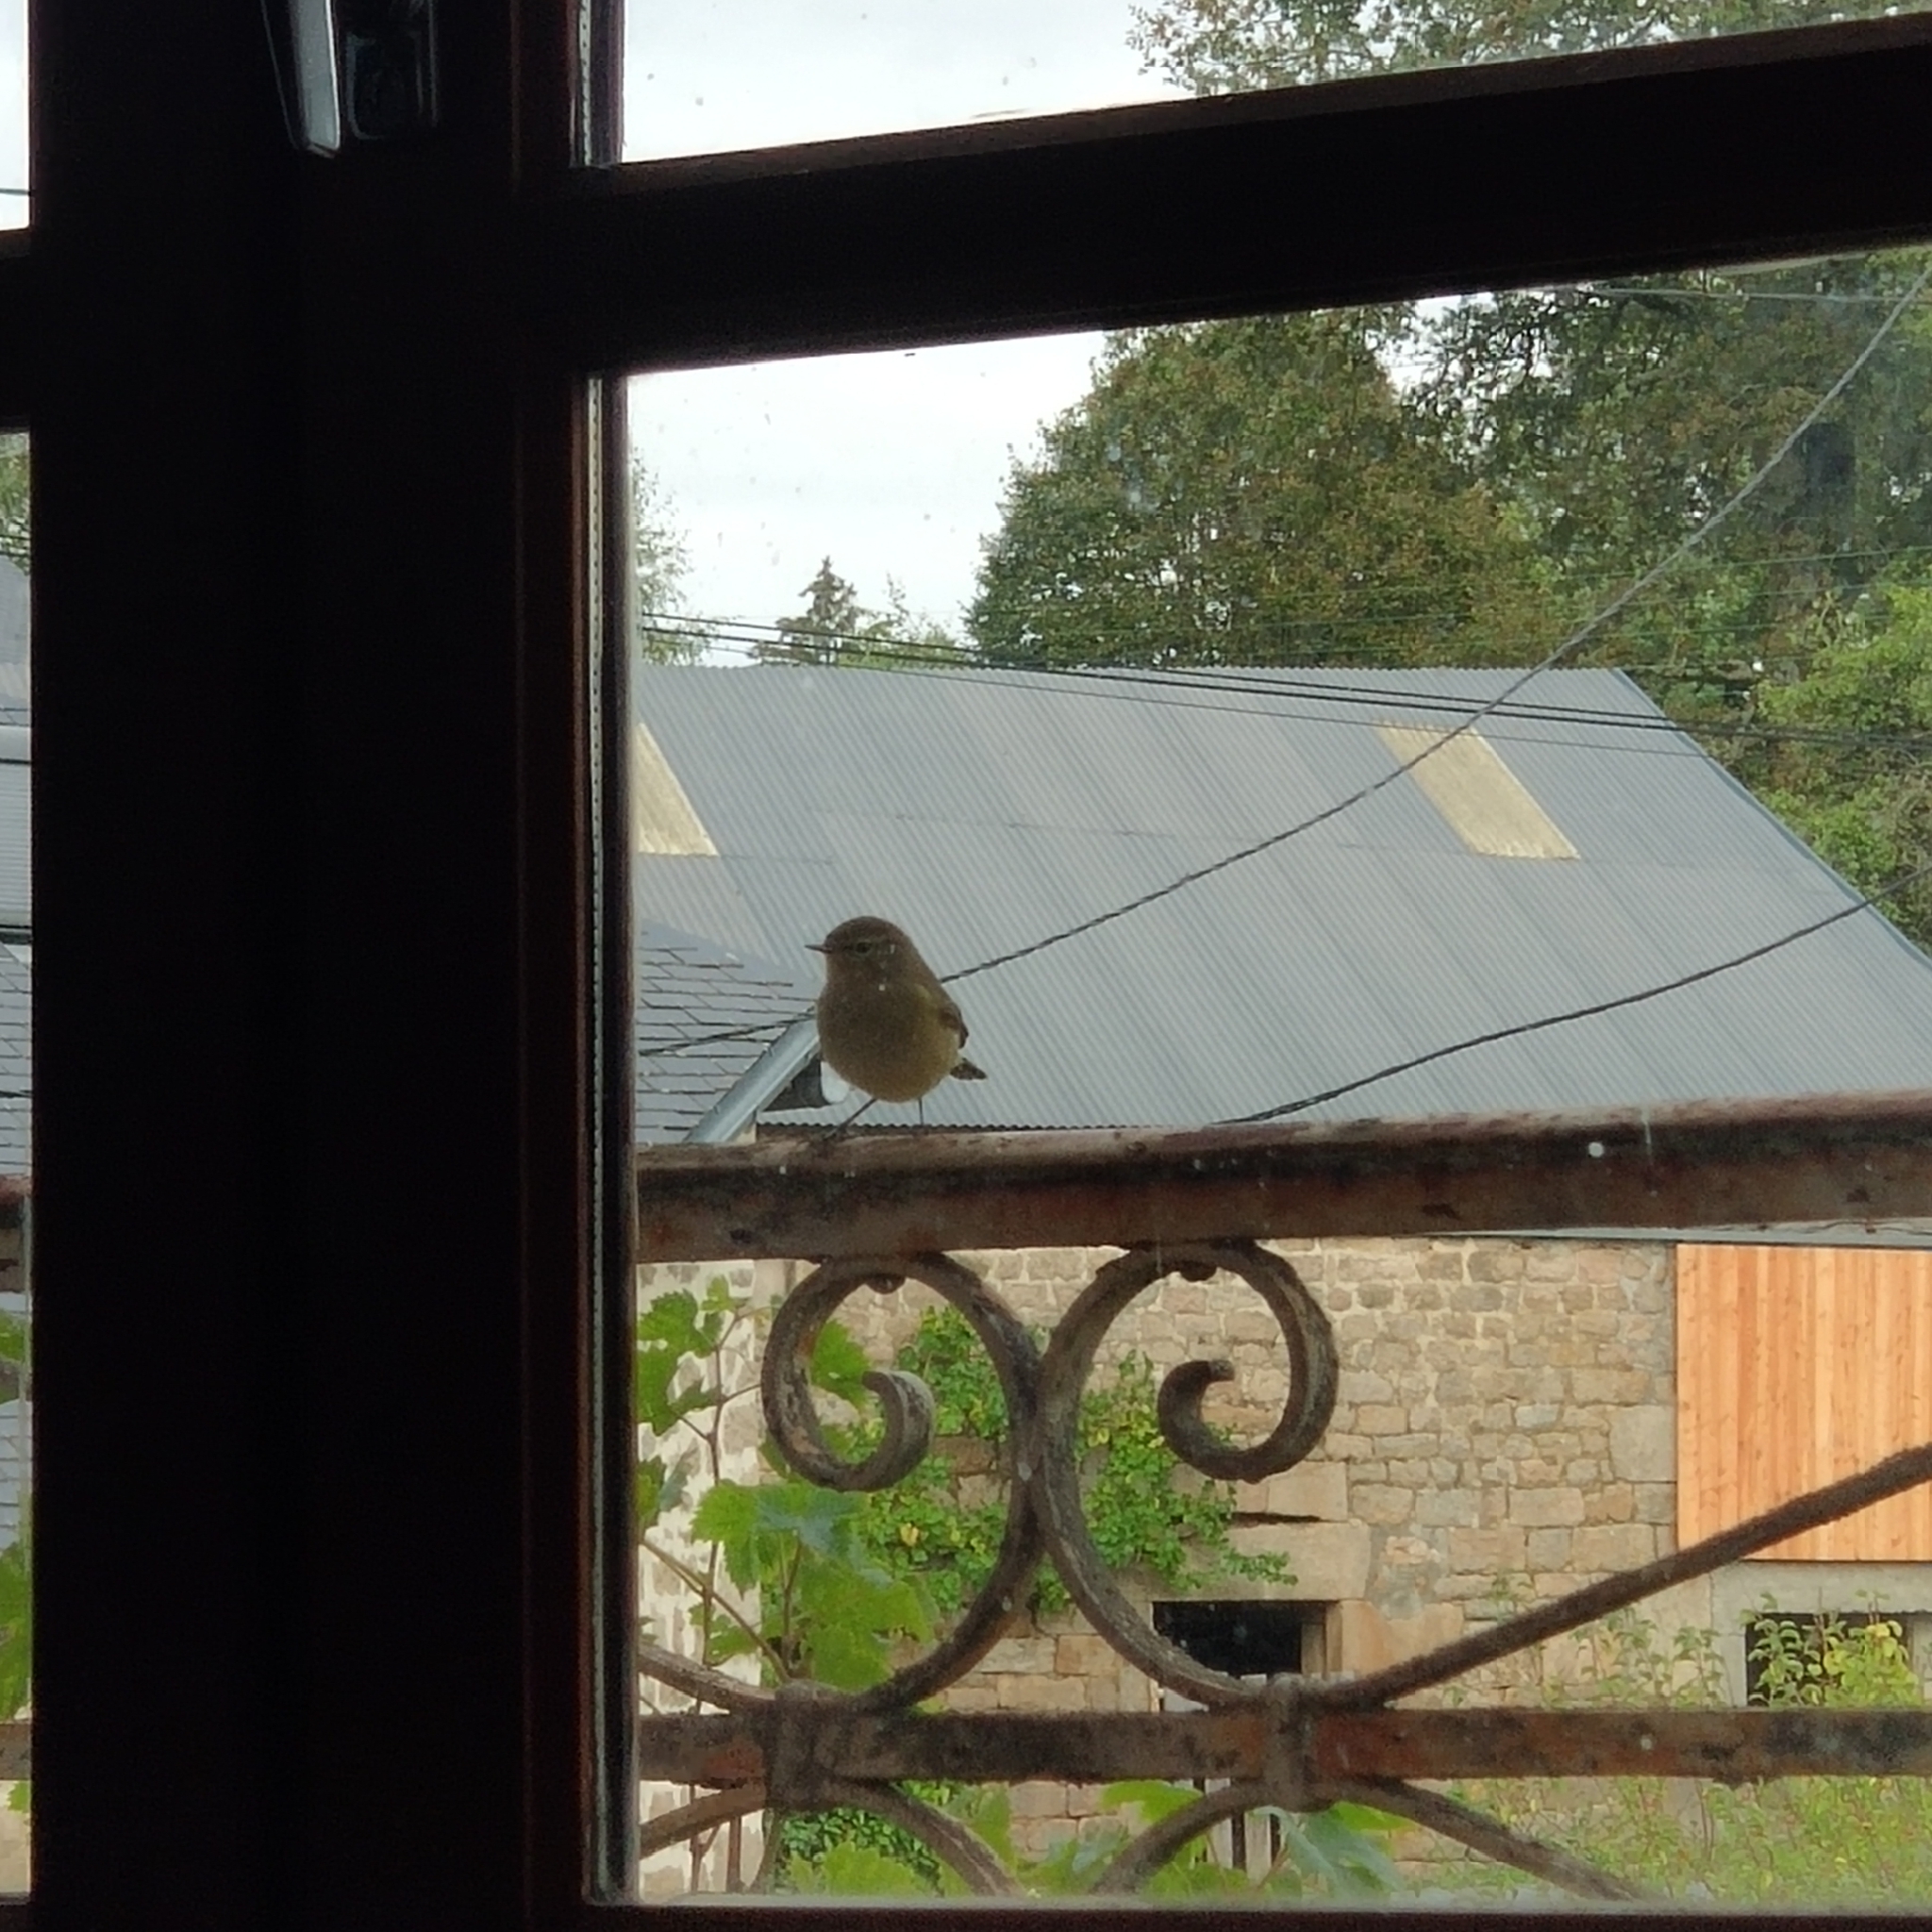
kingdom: Animalia
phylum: Chordata
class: Aves
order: Passeriformes
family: Phylloscopidae
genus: Phylloscopus
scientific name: Phylloscopus collybita
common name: Common chiffchaff
